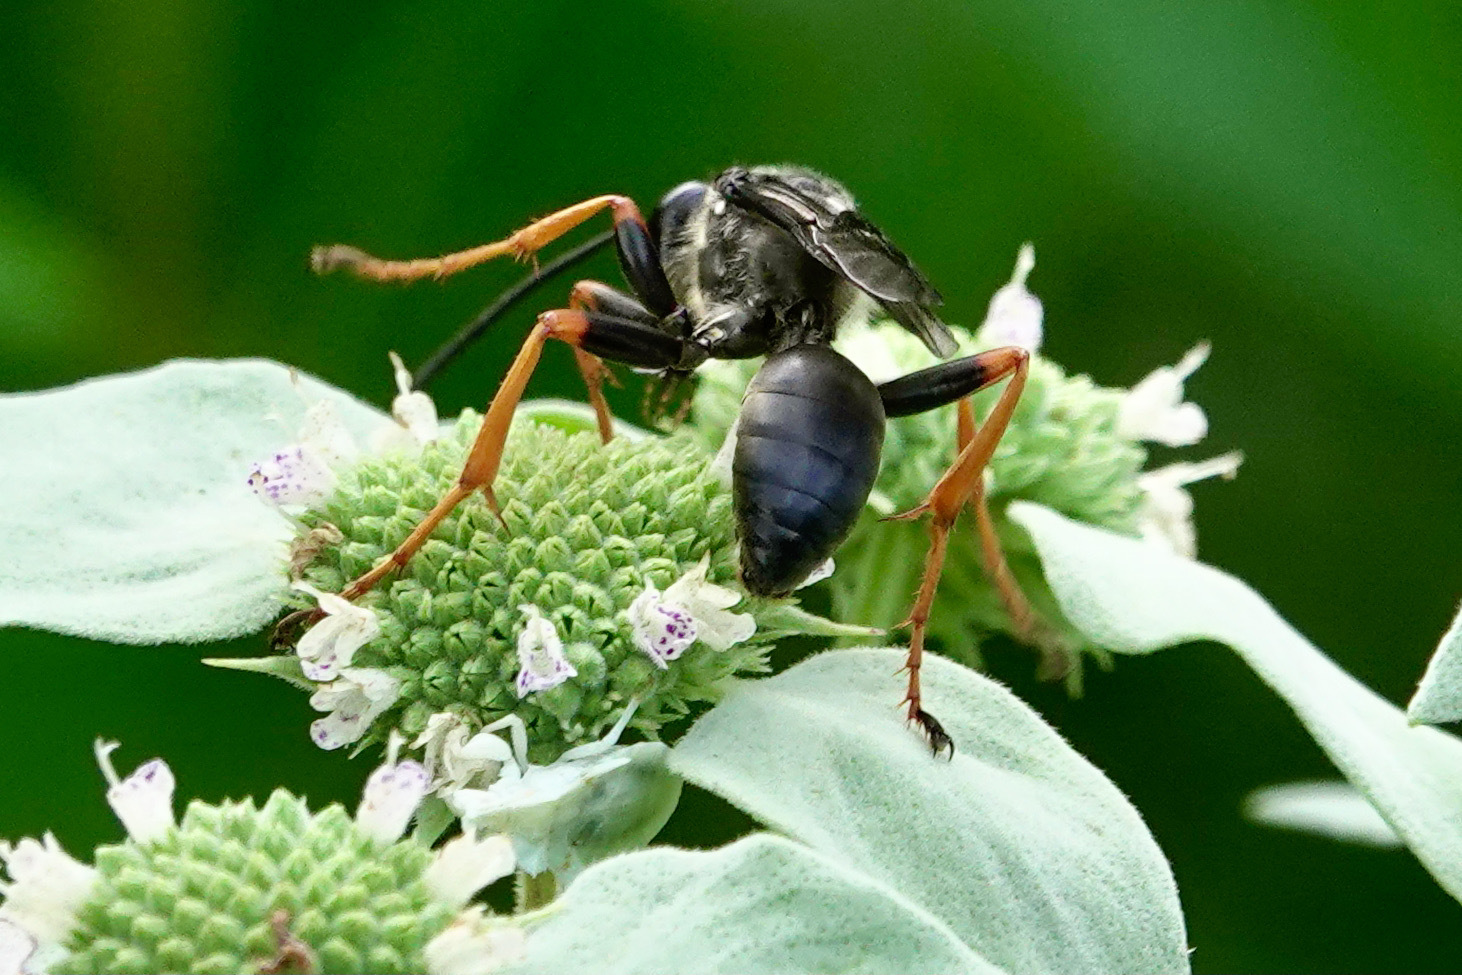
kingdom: Animalia
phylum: Arthropoda
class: Insecta
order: Hymenoptera
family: Sphecidae
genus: Sphex
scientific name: Sphex nudus
